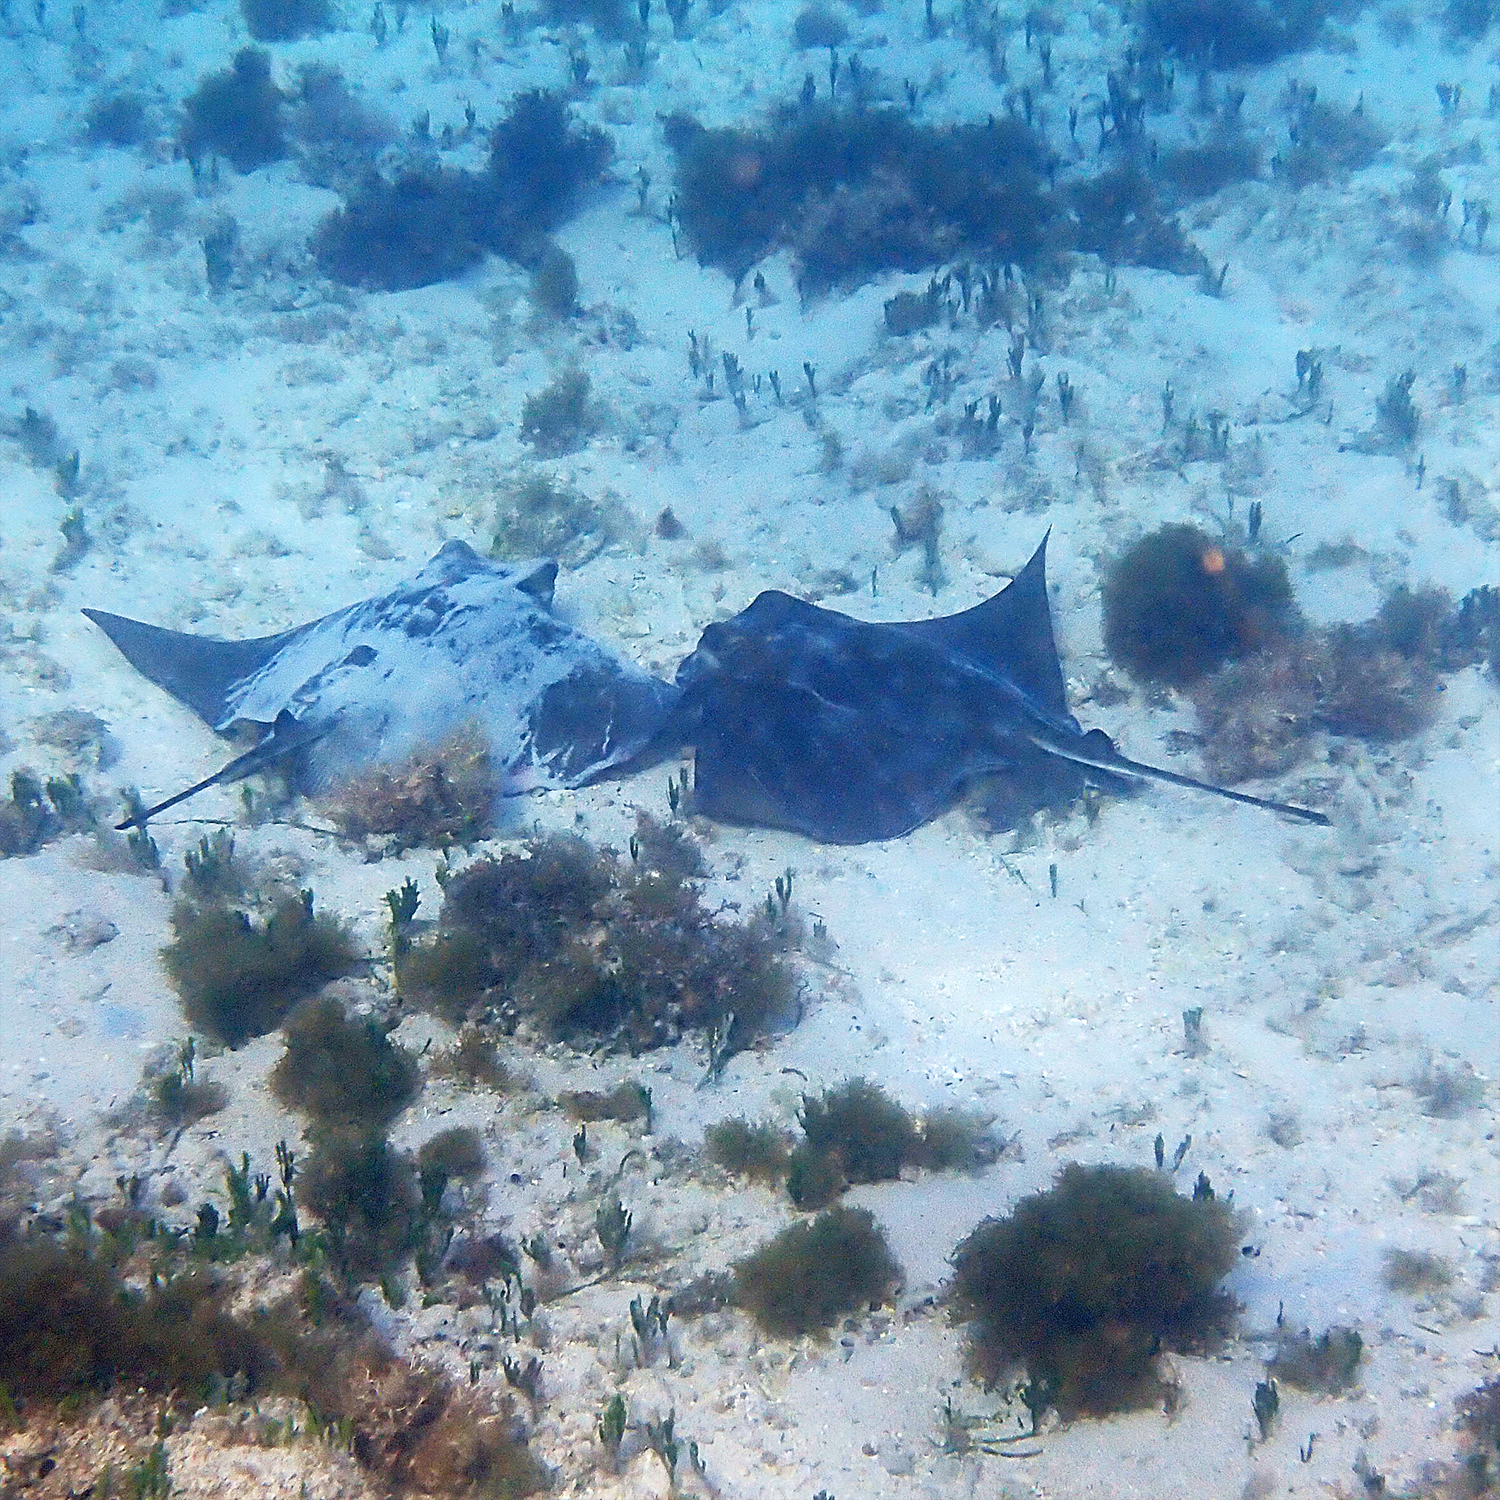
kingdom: Animalia
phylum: Chordata
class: Elasmobranchii
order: Myliobatiformes
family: Myliobatidae
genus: Myliobatis
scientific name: Myliobatis tenuicaudatus
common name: Eagle ray
